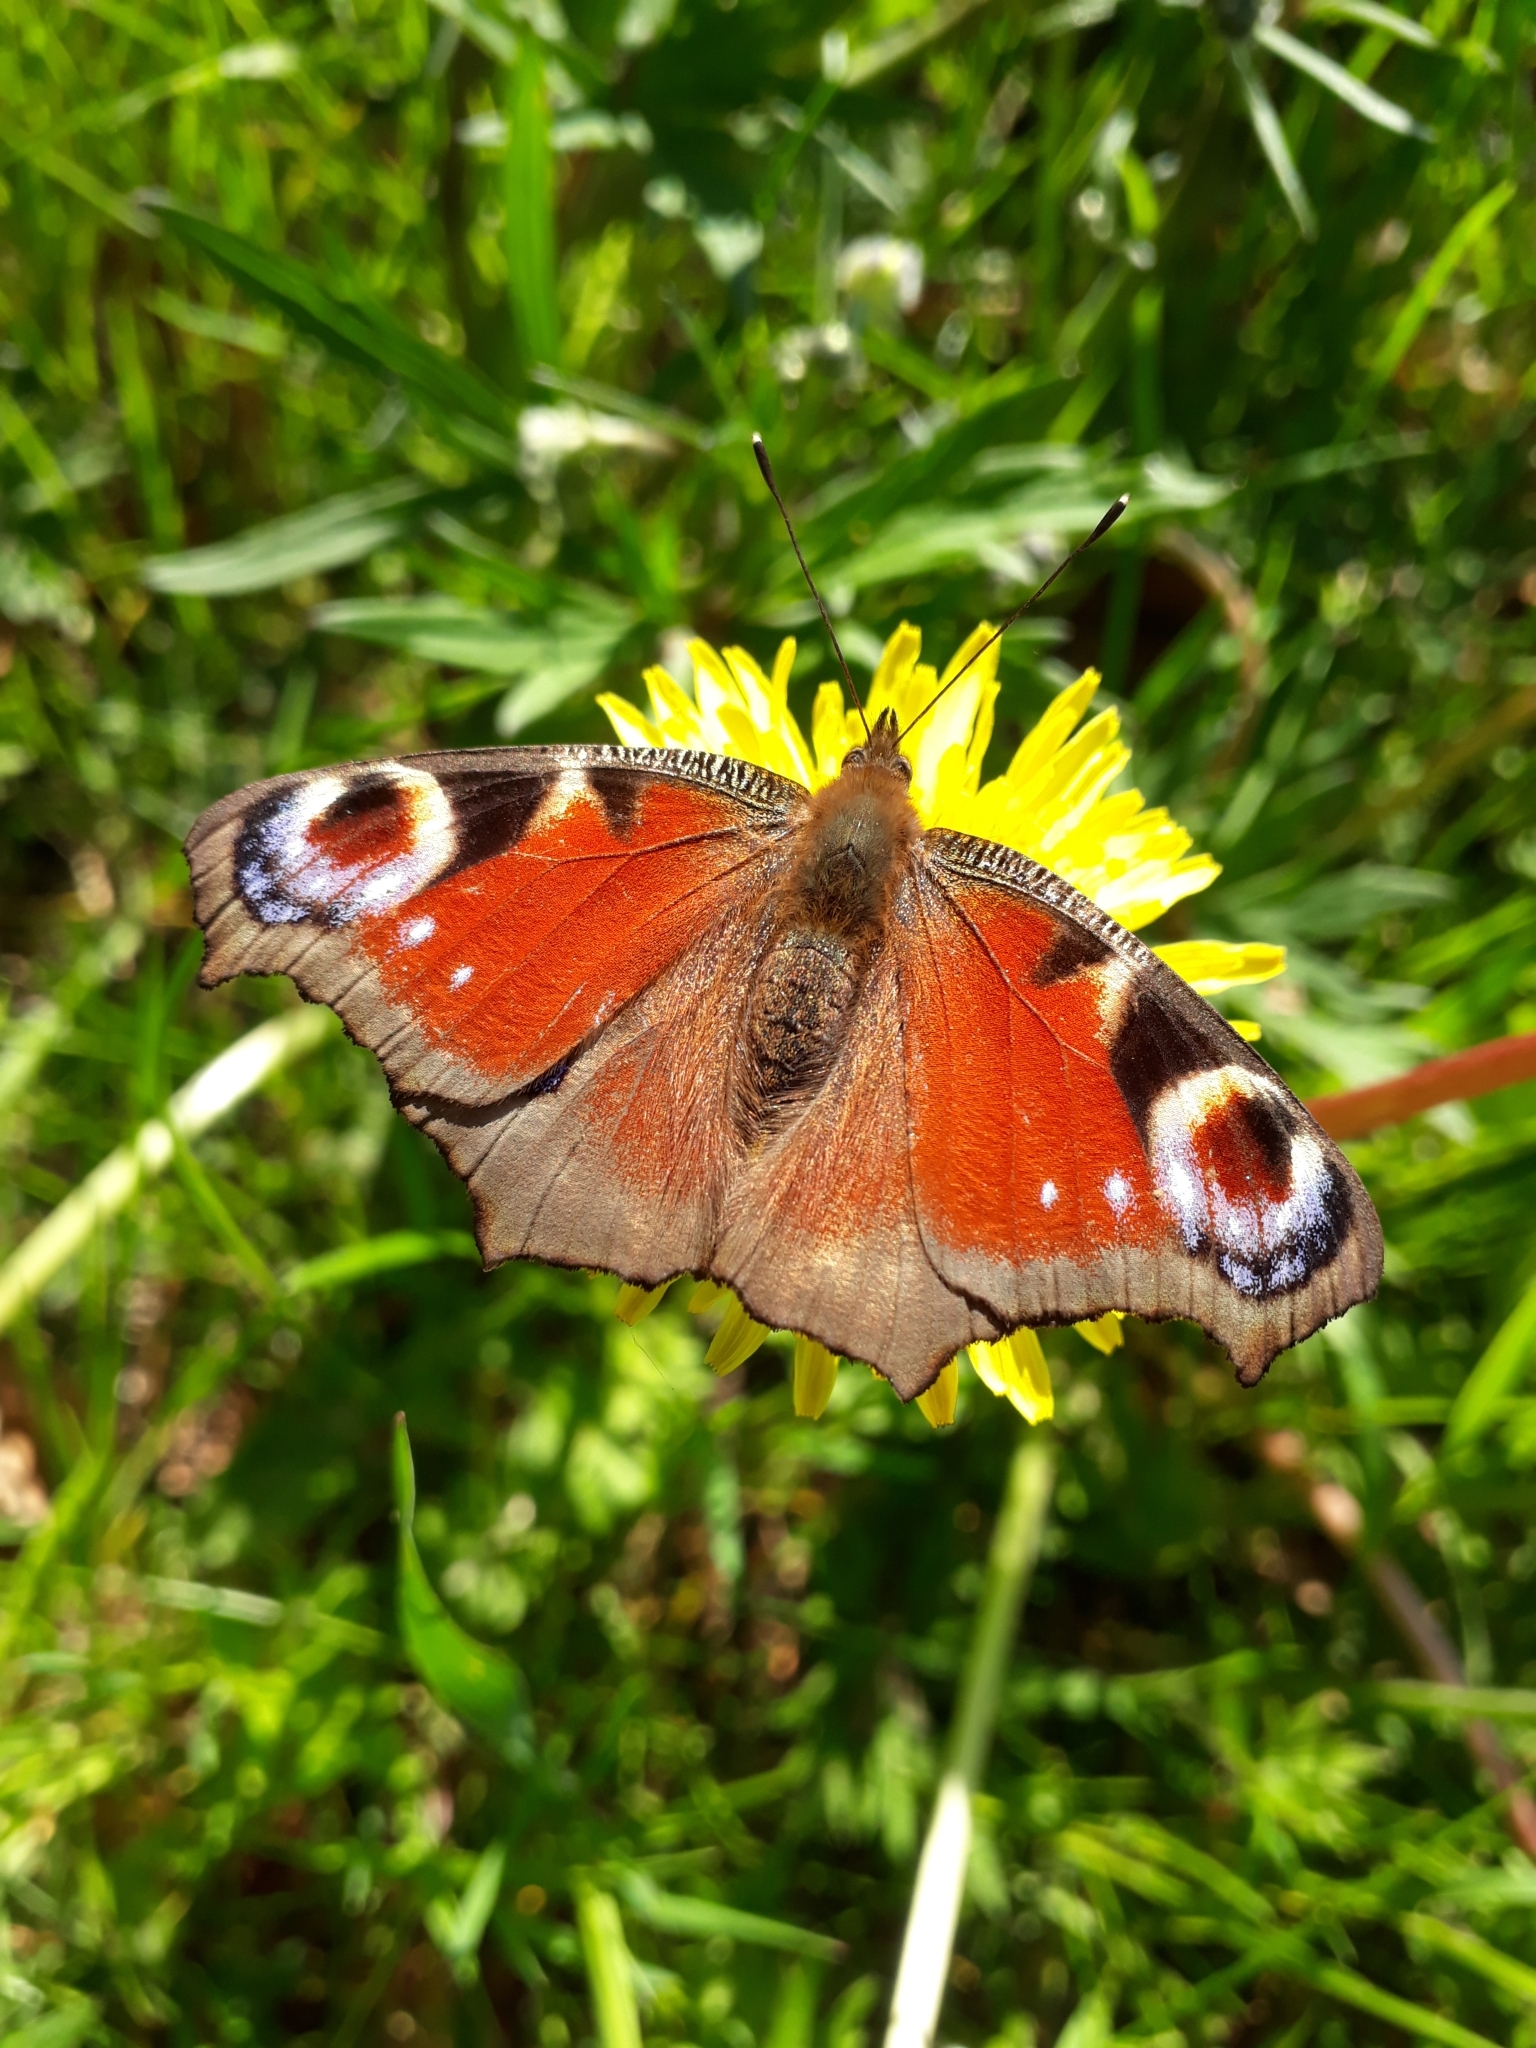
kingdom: Animalia
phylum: Arthropoda
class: Insecta
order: Lepidoptera
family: Nymphalidae
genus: Aglais
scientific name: Aglais io
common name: Peacock
